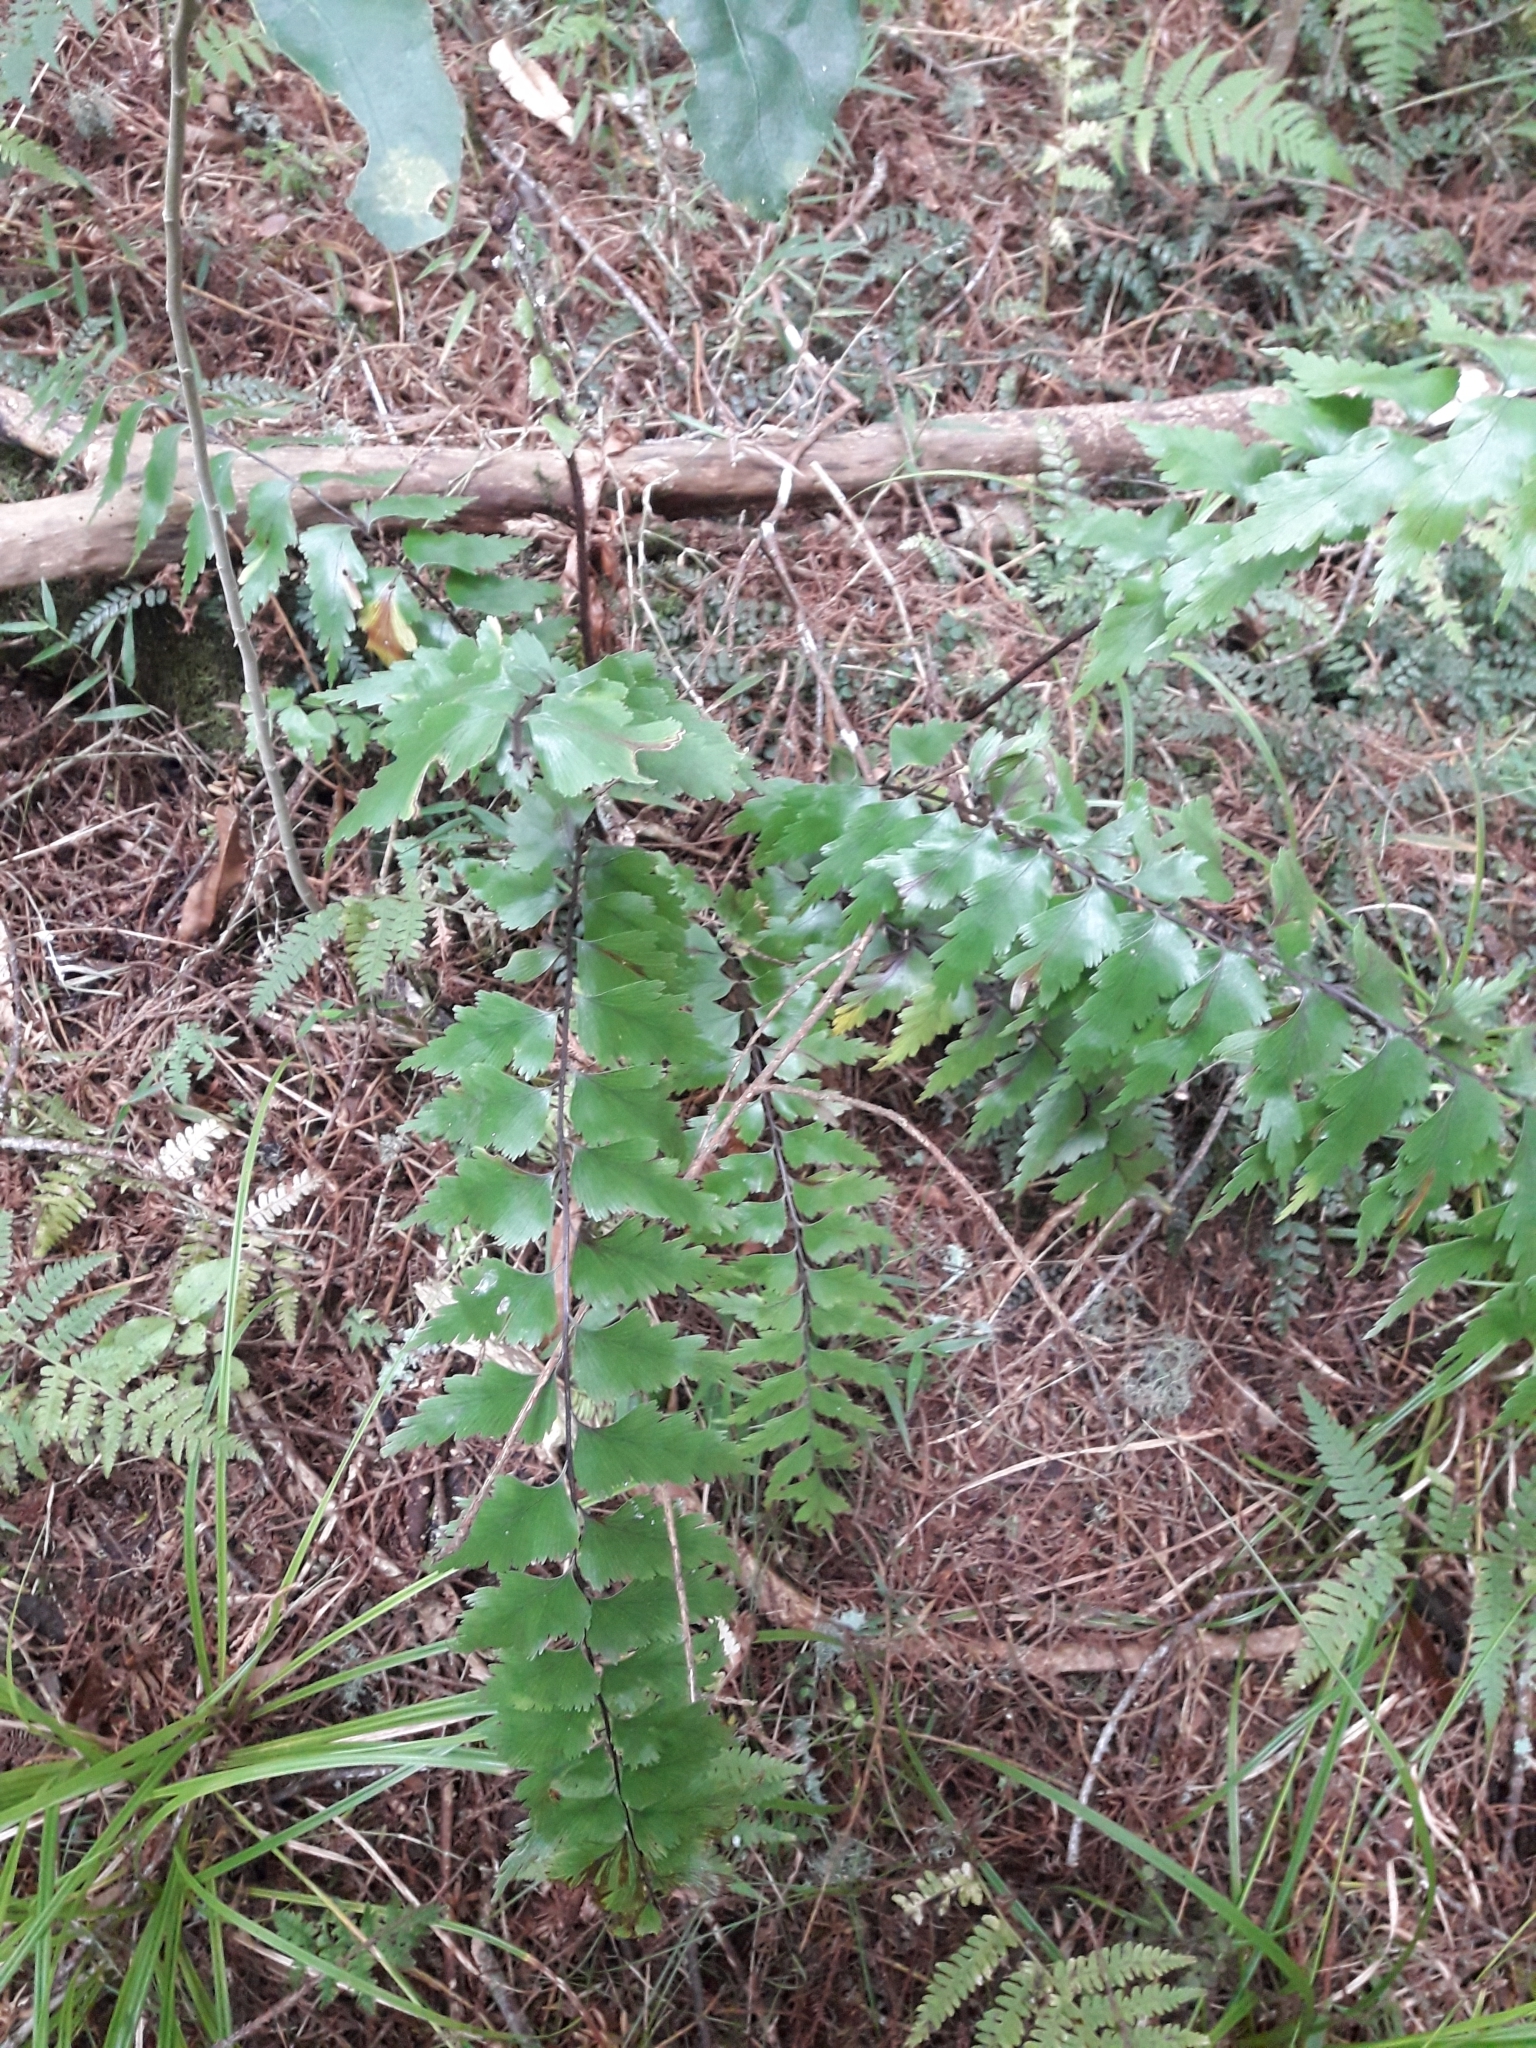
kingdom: Plantae
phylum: Tracheophyta
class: Polypodiopsida
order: Polypodiales
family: Aspleniaceae
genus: Asplenium
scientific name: Asplenium polyodon
